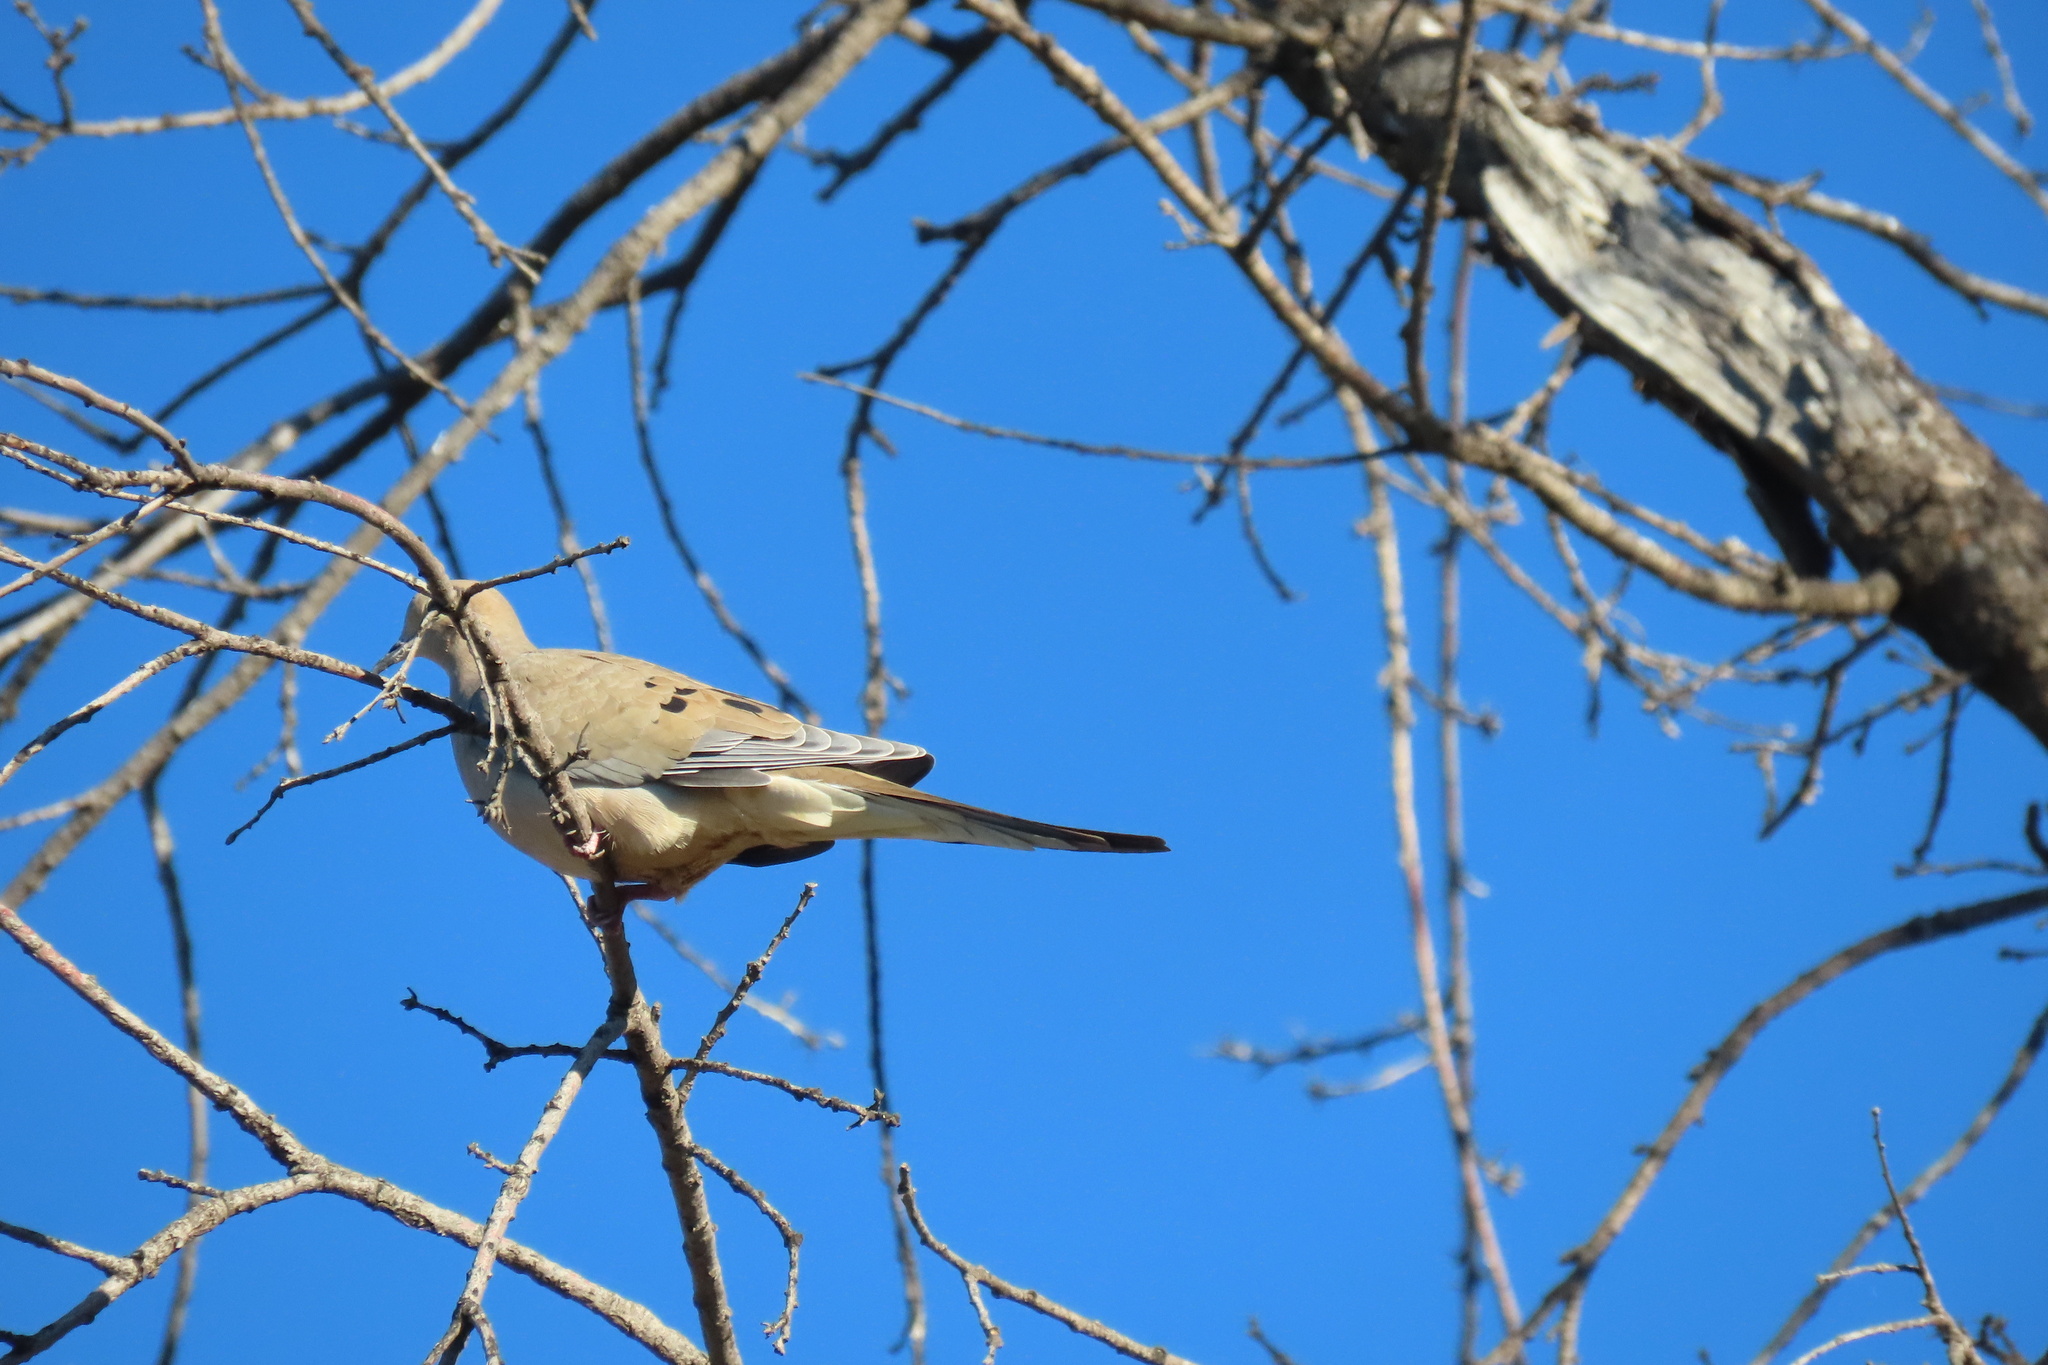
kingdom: Animalia
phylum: Chordata
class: Aves
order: Columbiformes
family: Columbidae
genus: Zenaida
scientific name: Zenaida macroura
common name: Mourning dove
